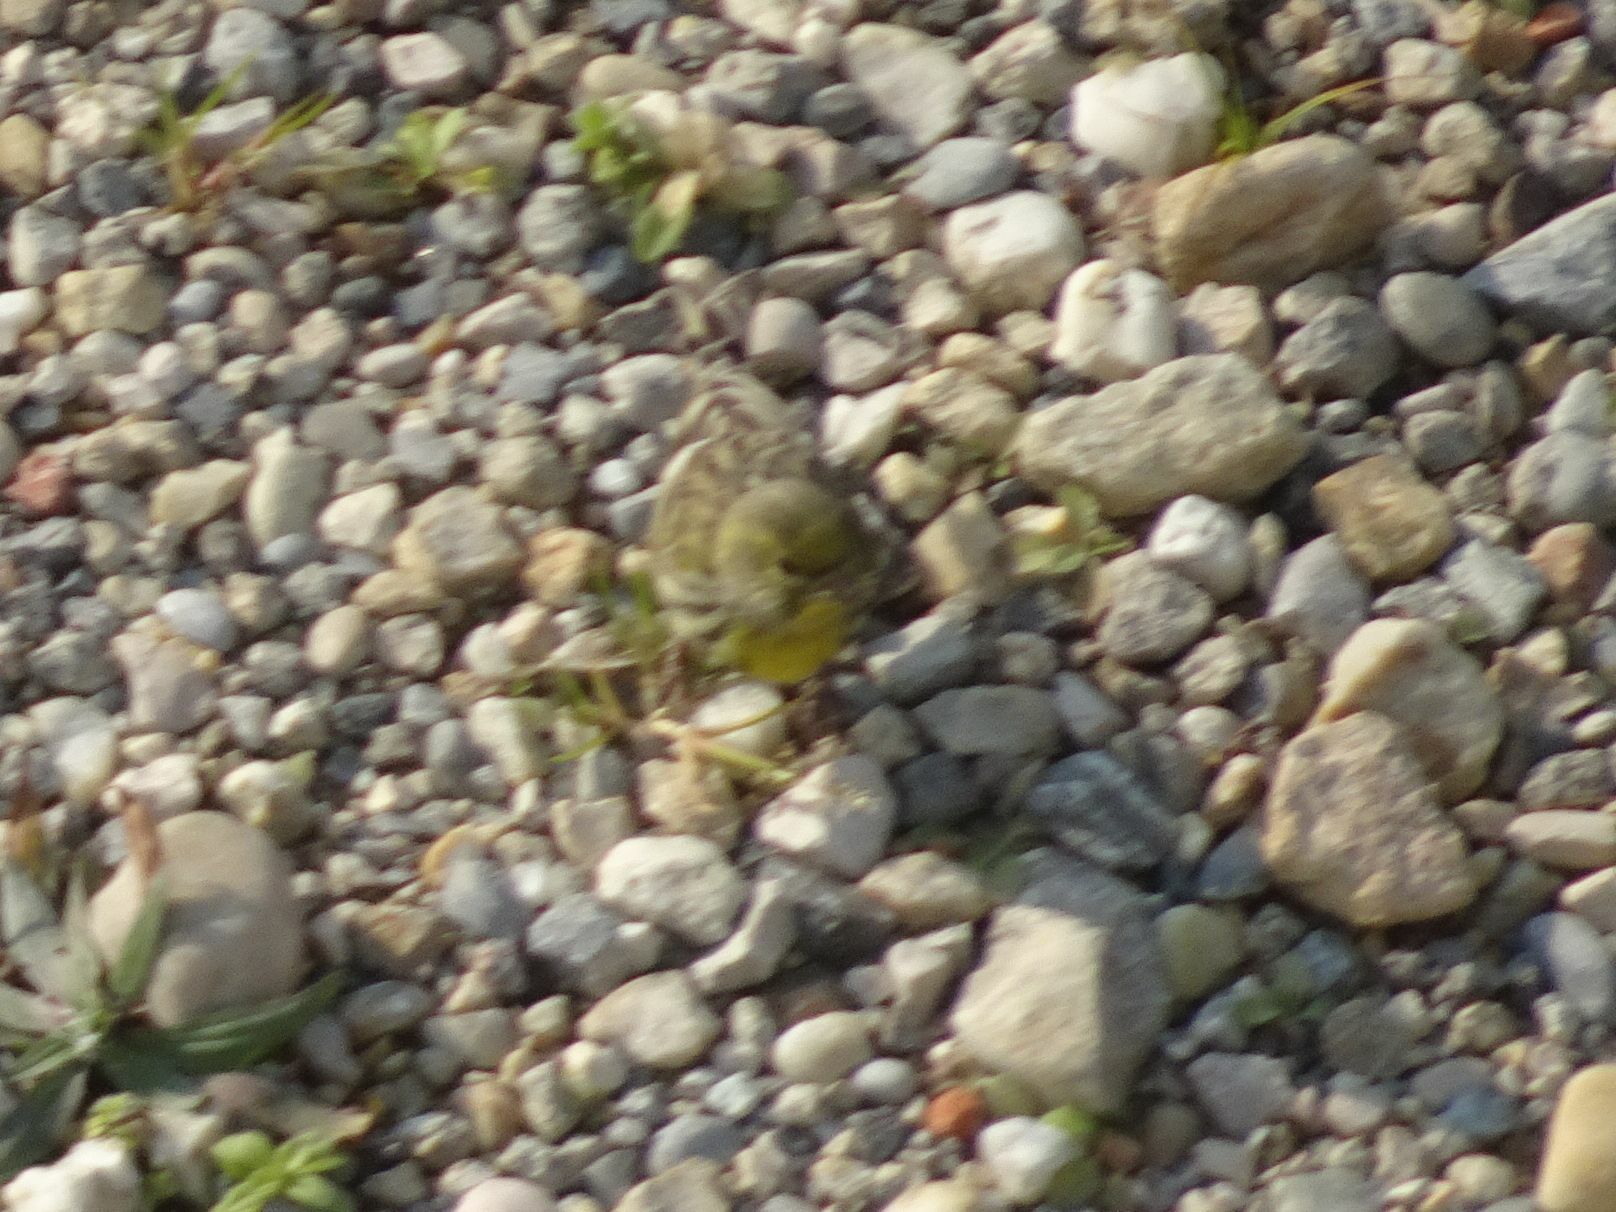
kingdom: Animalia
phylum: Chordata
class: Aves
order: Passeriformes
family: Fringillidae
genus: Serinus
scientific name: Serinus serinus
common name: European serin
